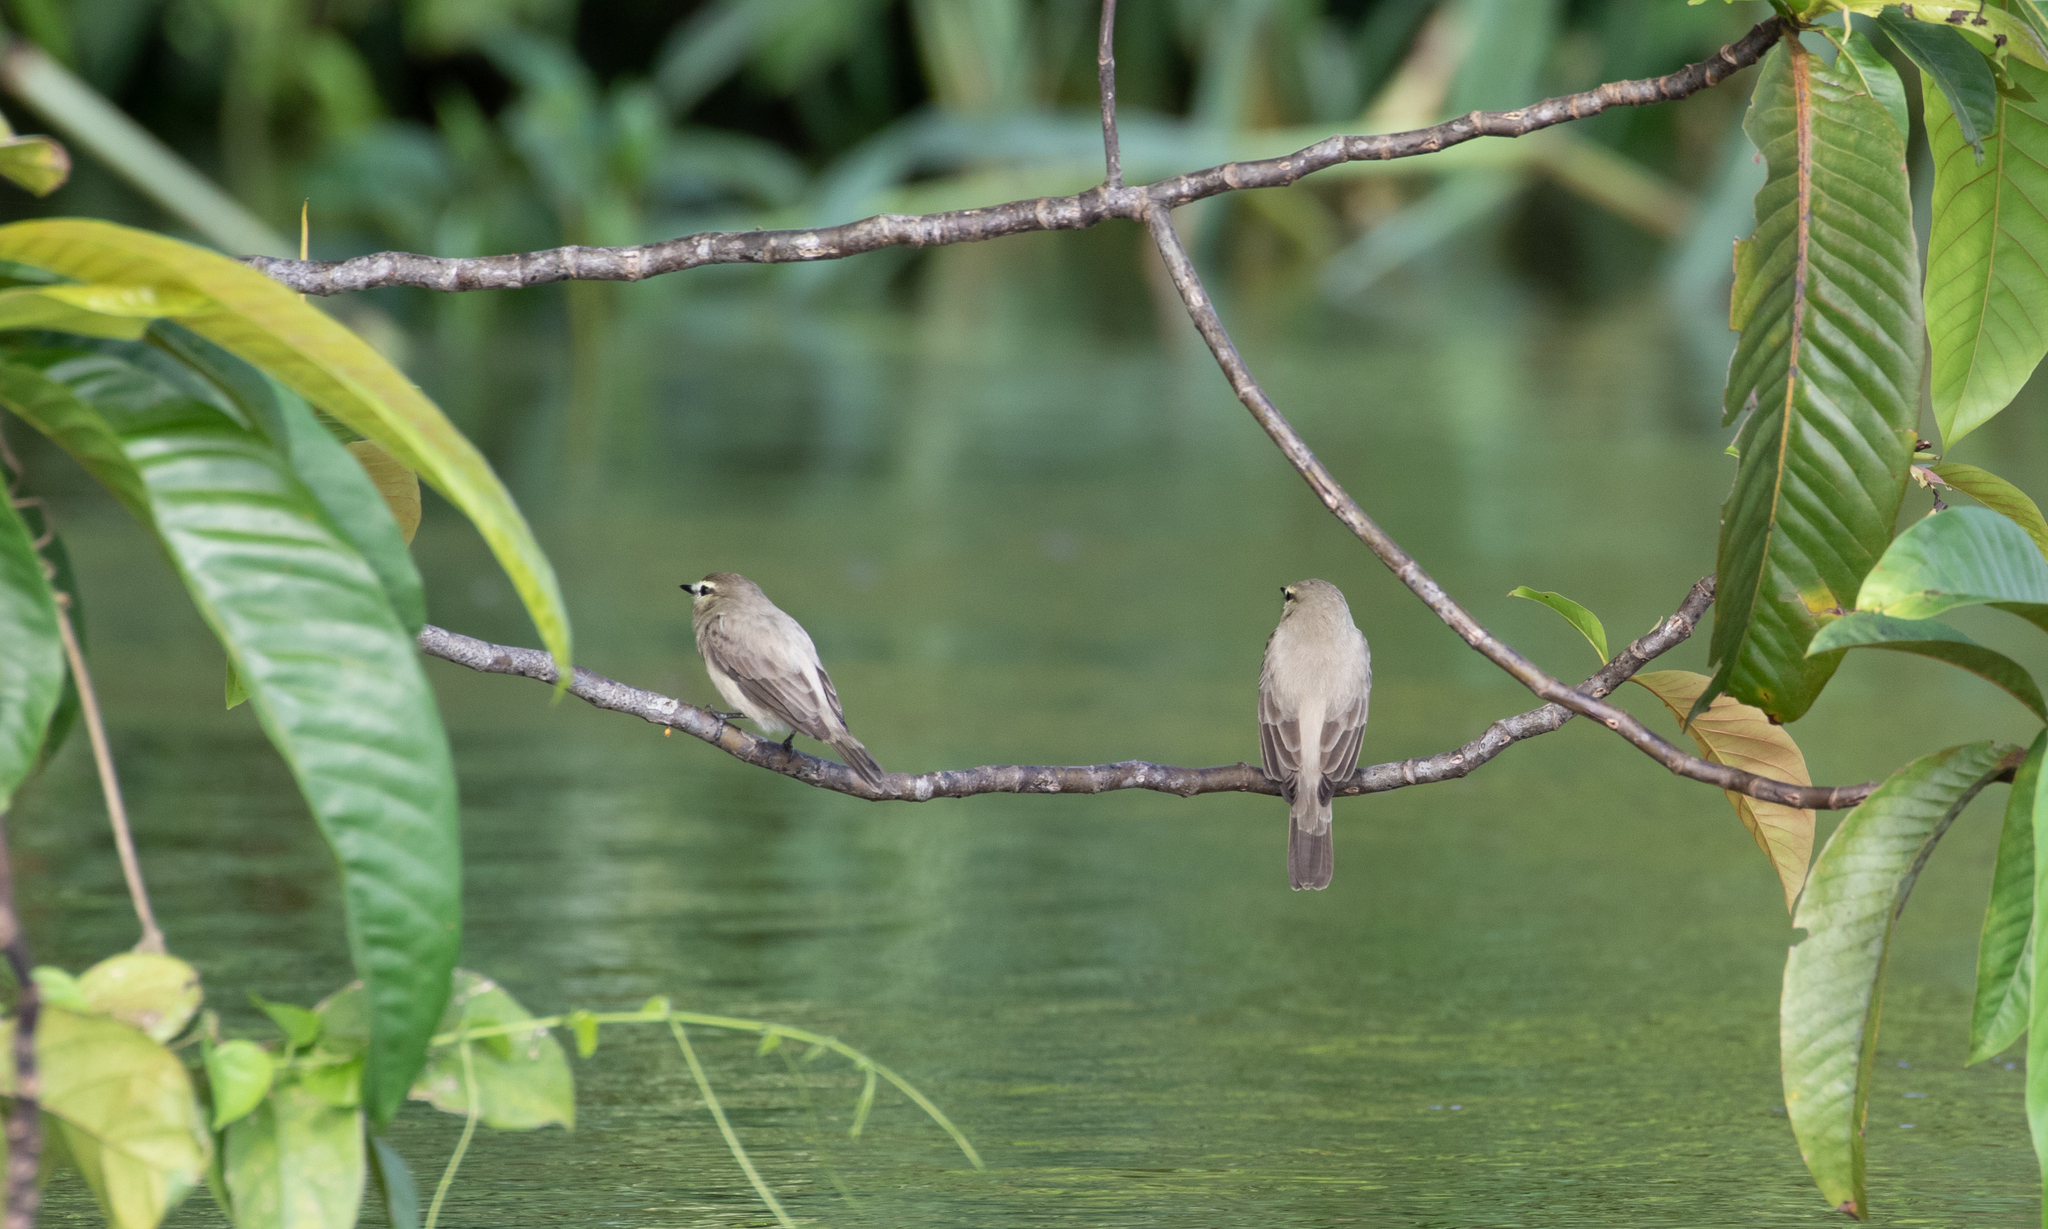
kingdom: Animalia
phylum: Chordata
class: Aves
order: Passeriformes
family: Tyrannidae
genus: Ochthornis
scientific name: Ochthornis littoralis
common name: Drab water tyrant
